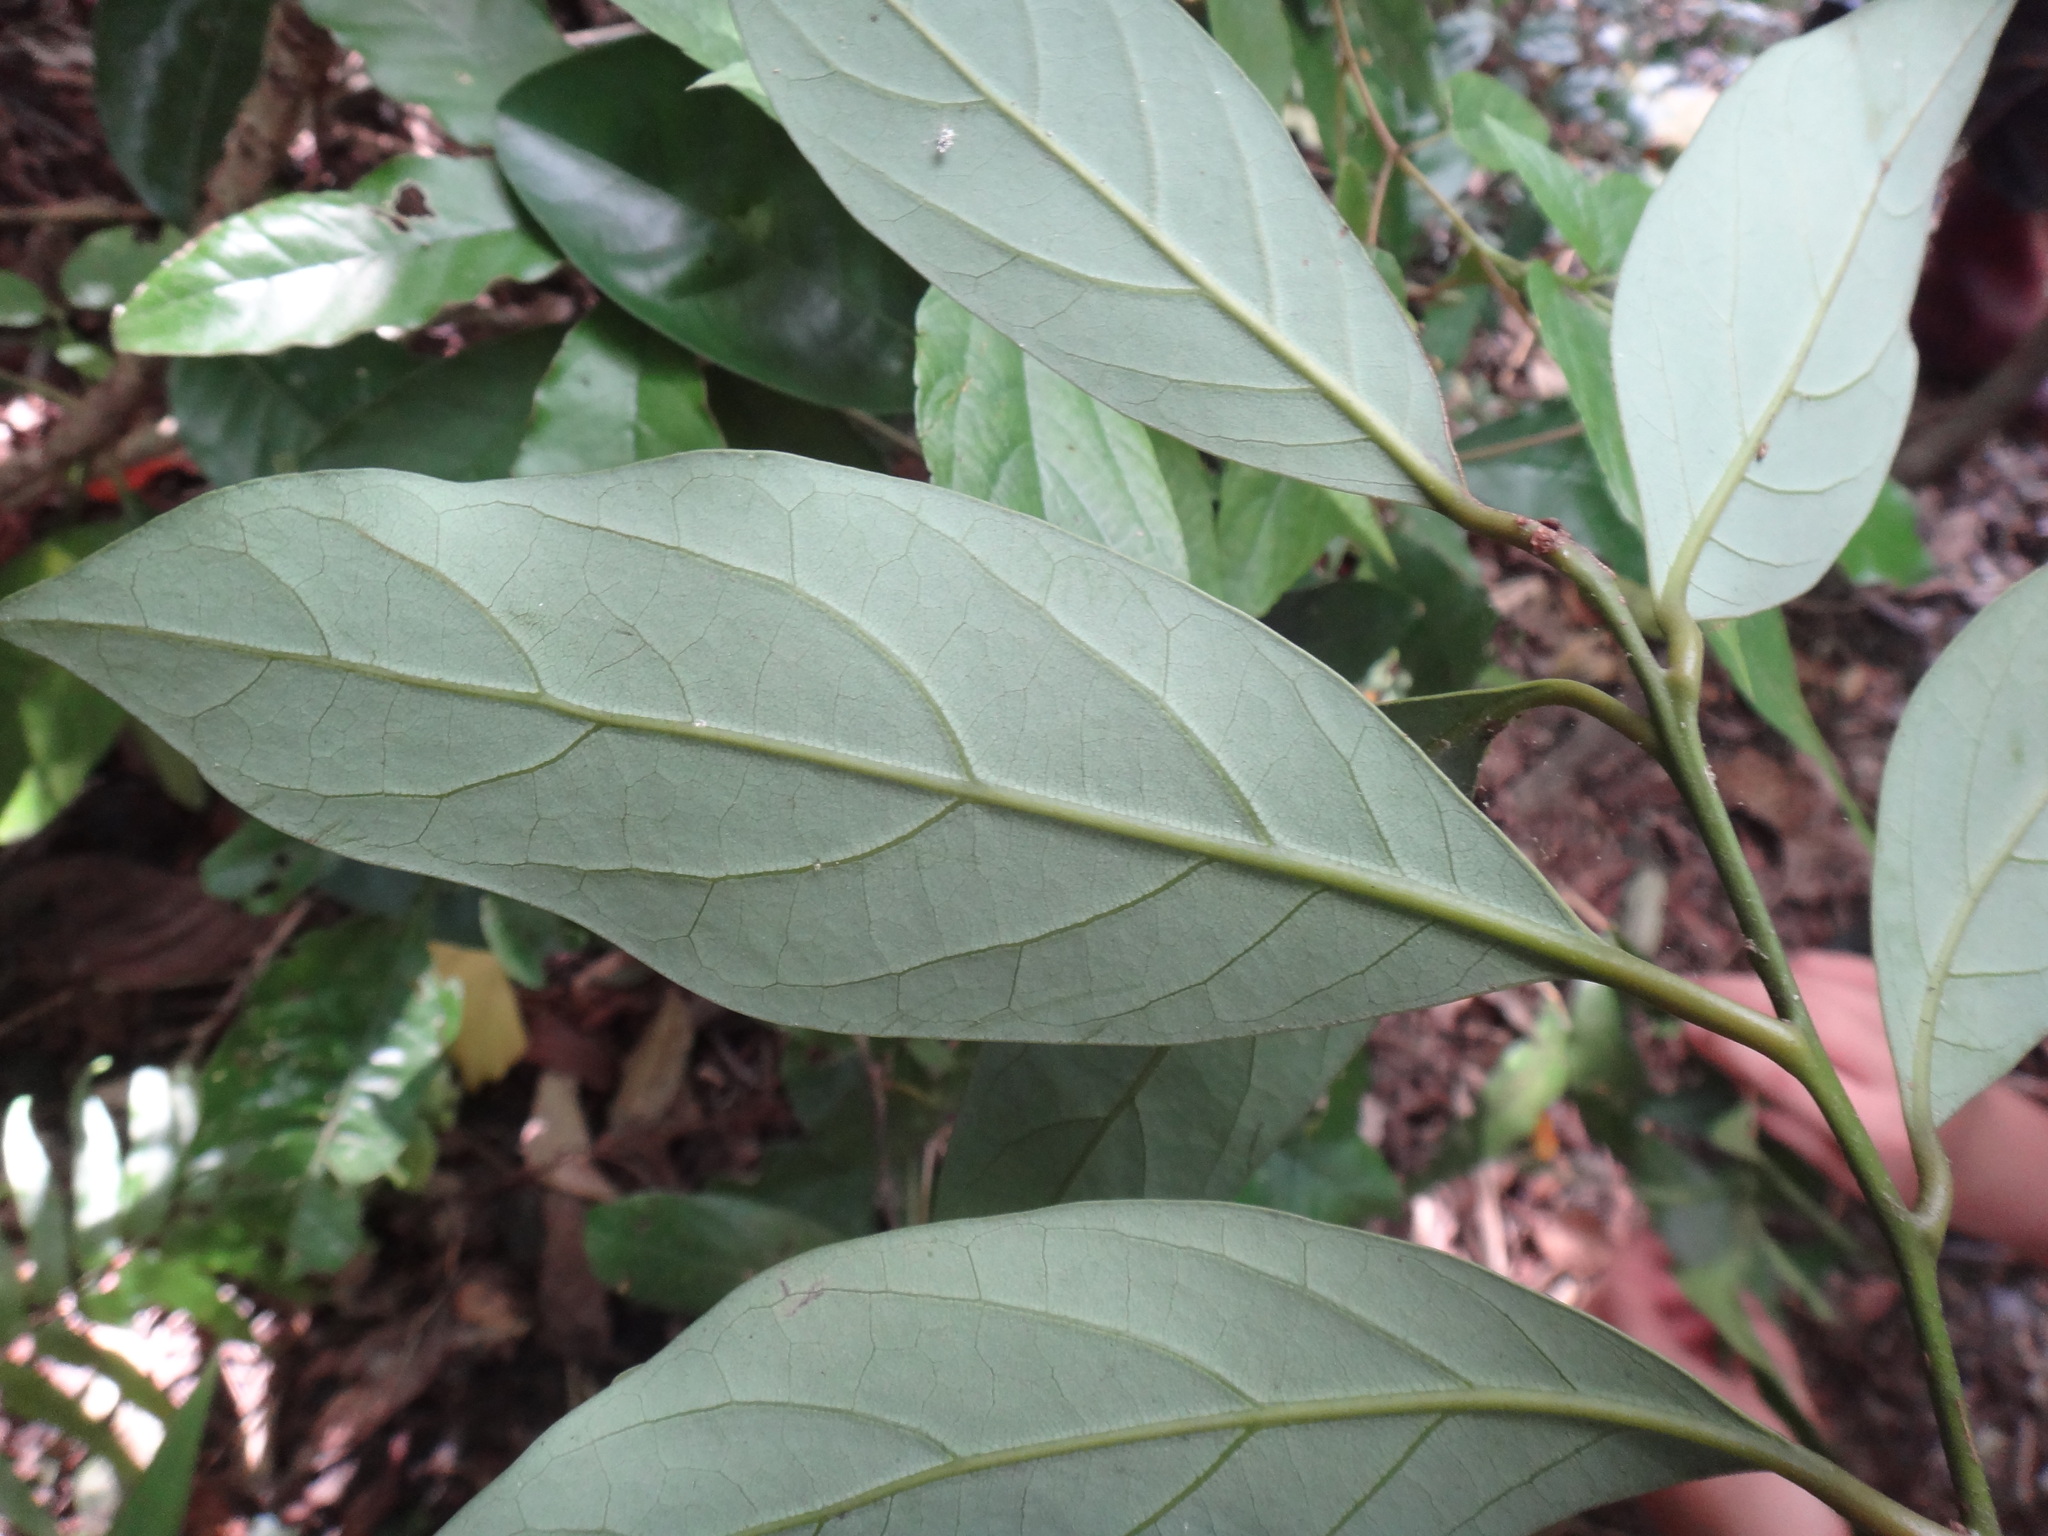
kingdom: Plantae
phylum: Tracheophyta
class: Magnoliopsida
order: Laurales
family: Lauraceae
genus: Cryptocarya
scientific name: Cryptocarya concinna
